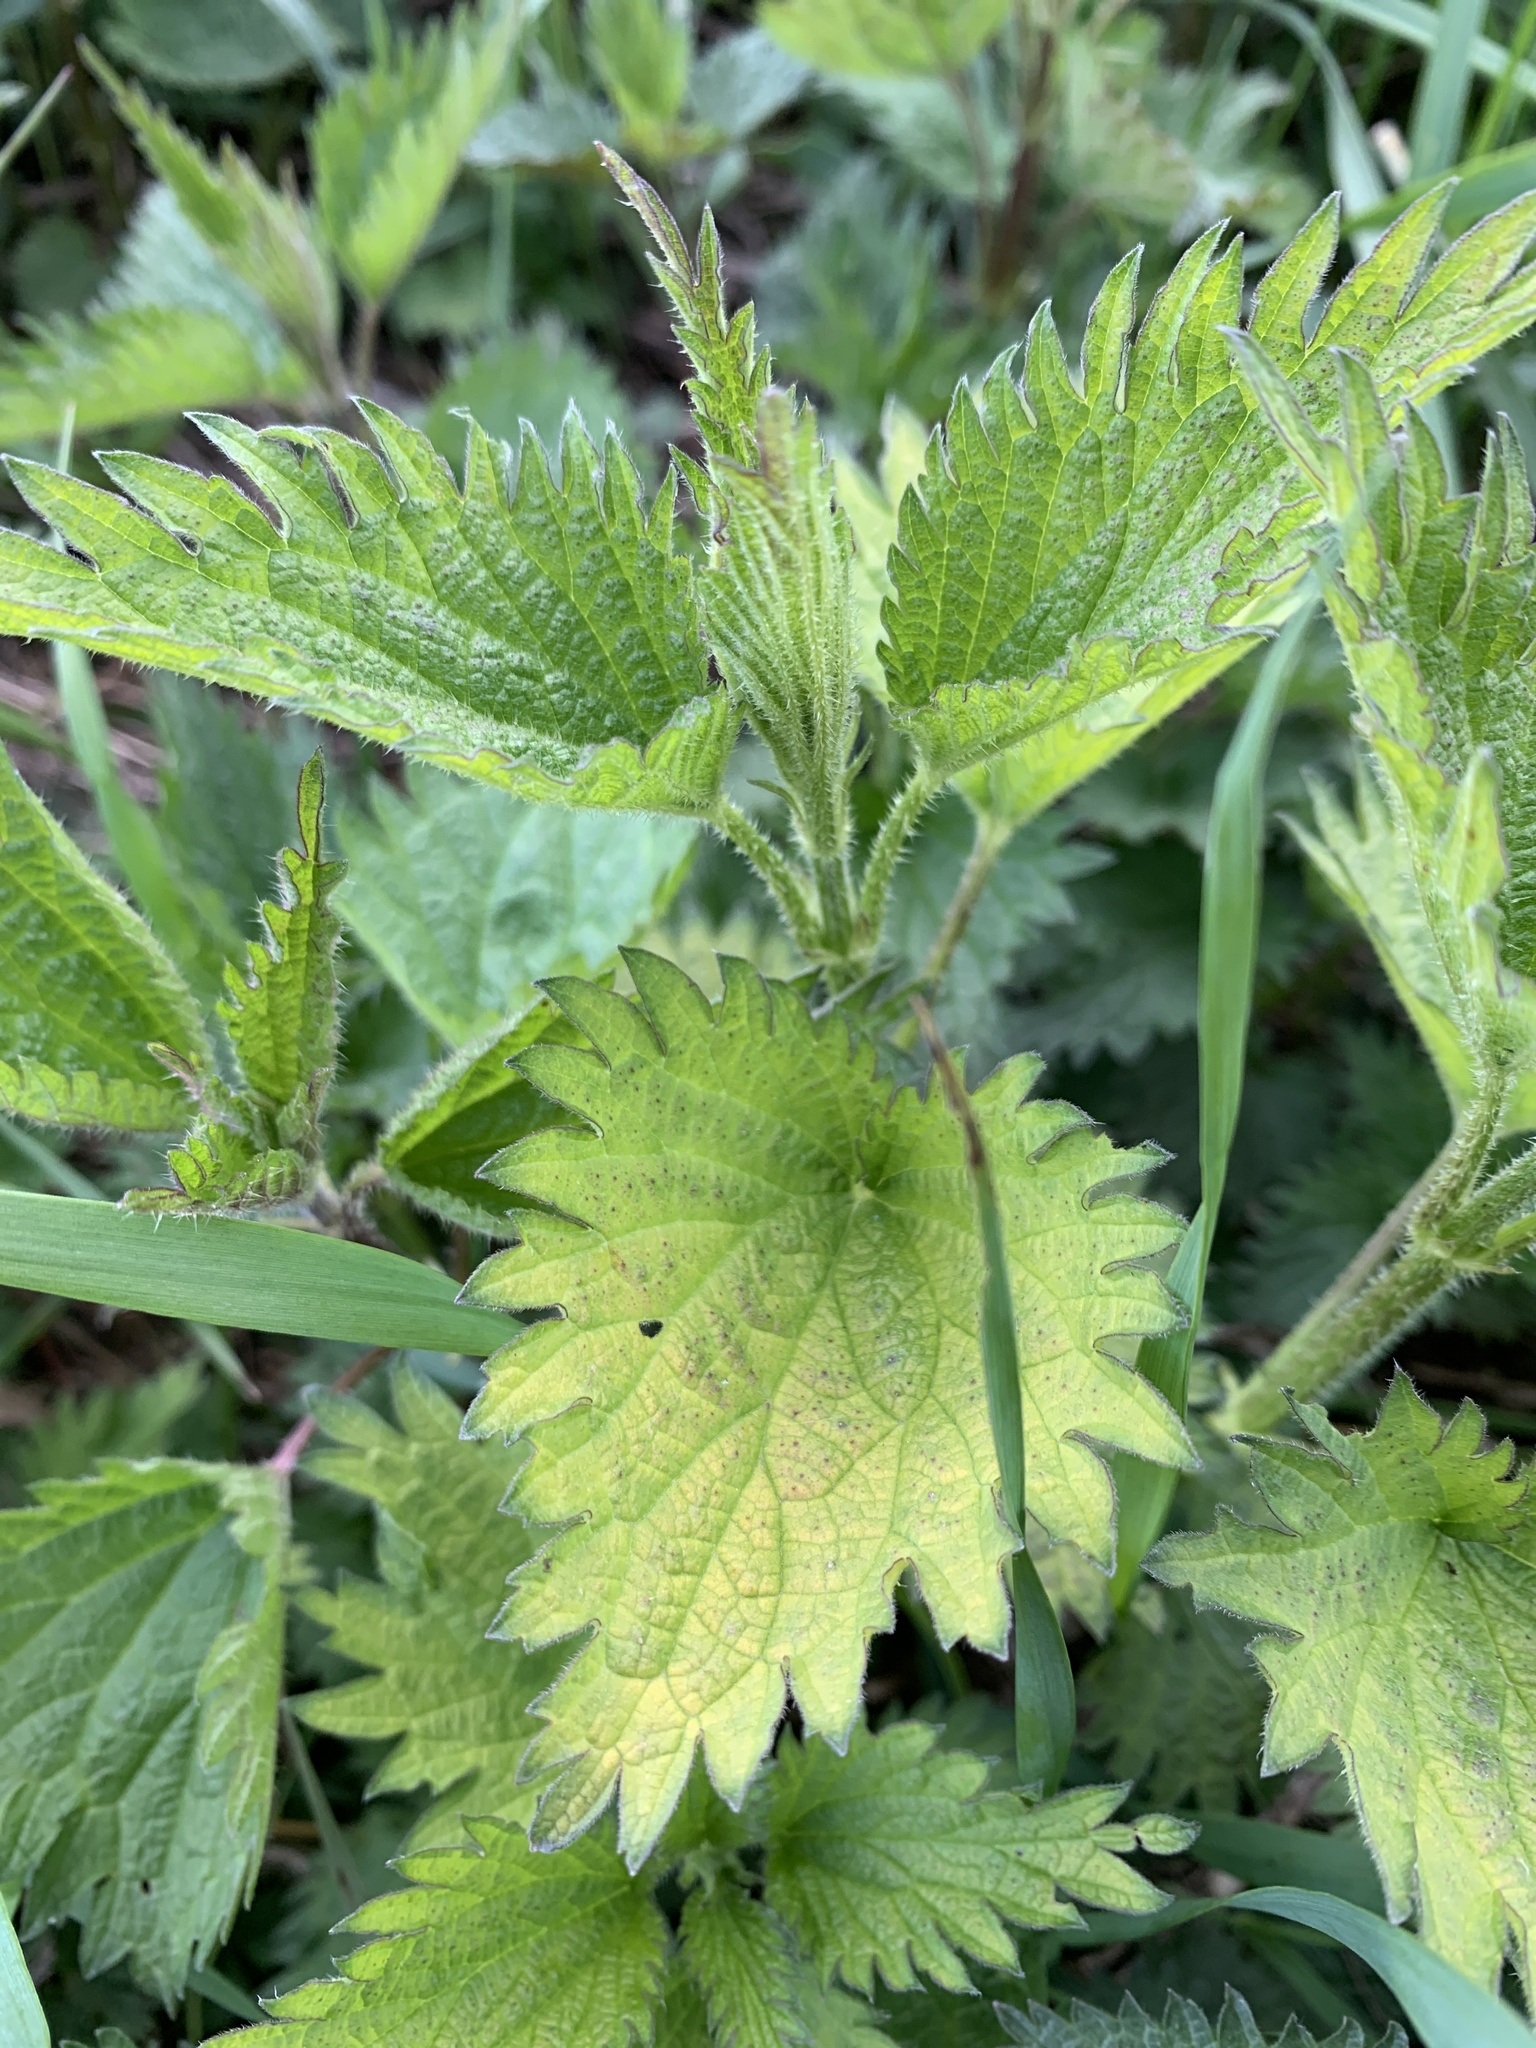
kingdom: Plantae
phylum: Tracheophyta
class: Magnoliopsida
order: Rosales
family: Urticaceae
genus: Urtica
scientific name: Urtica dioica
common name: Common nettle
